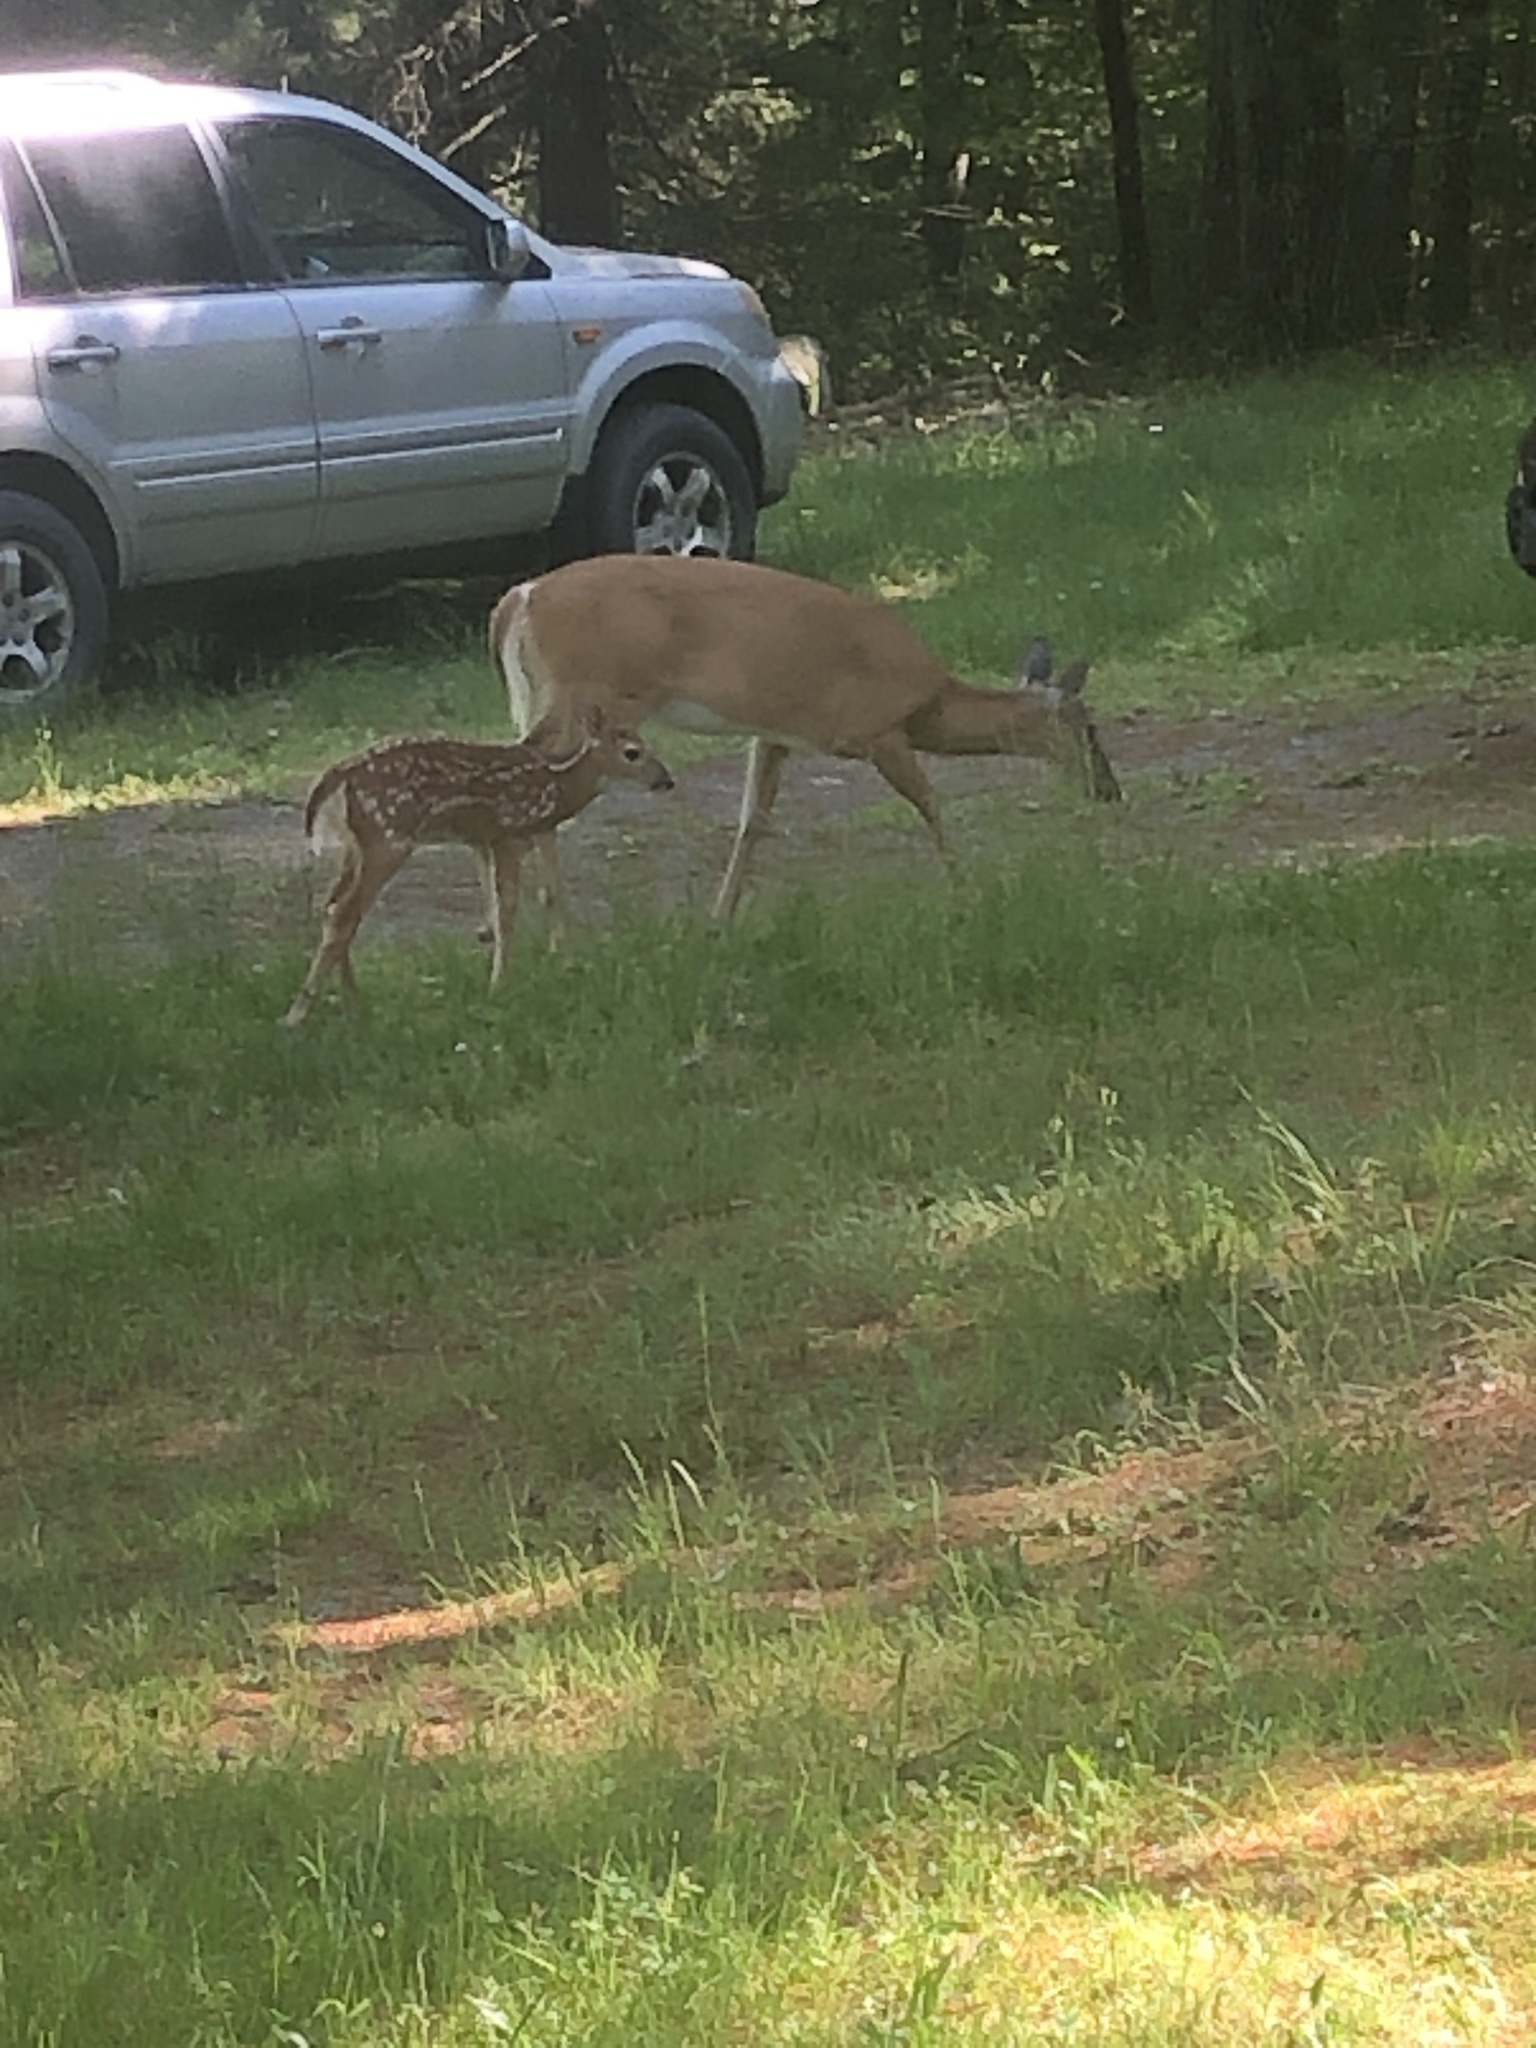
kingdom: Animalia
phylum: Chordata
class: Mammalia
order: Artiodactyla
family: Cervidae
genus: Odocoileus
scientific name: Odocoileus virginianus
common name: White-tailed deer
